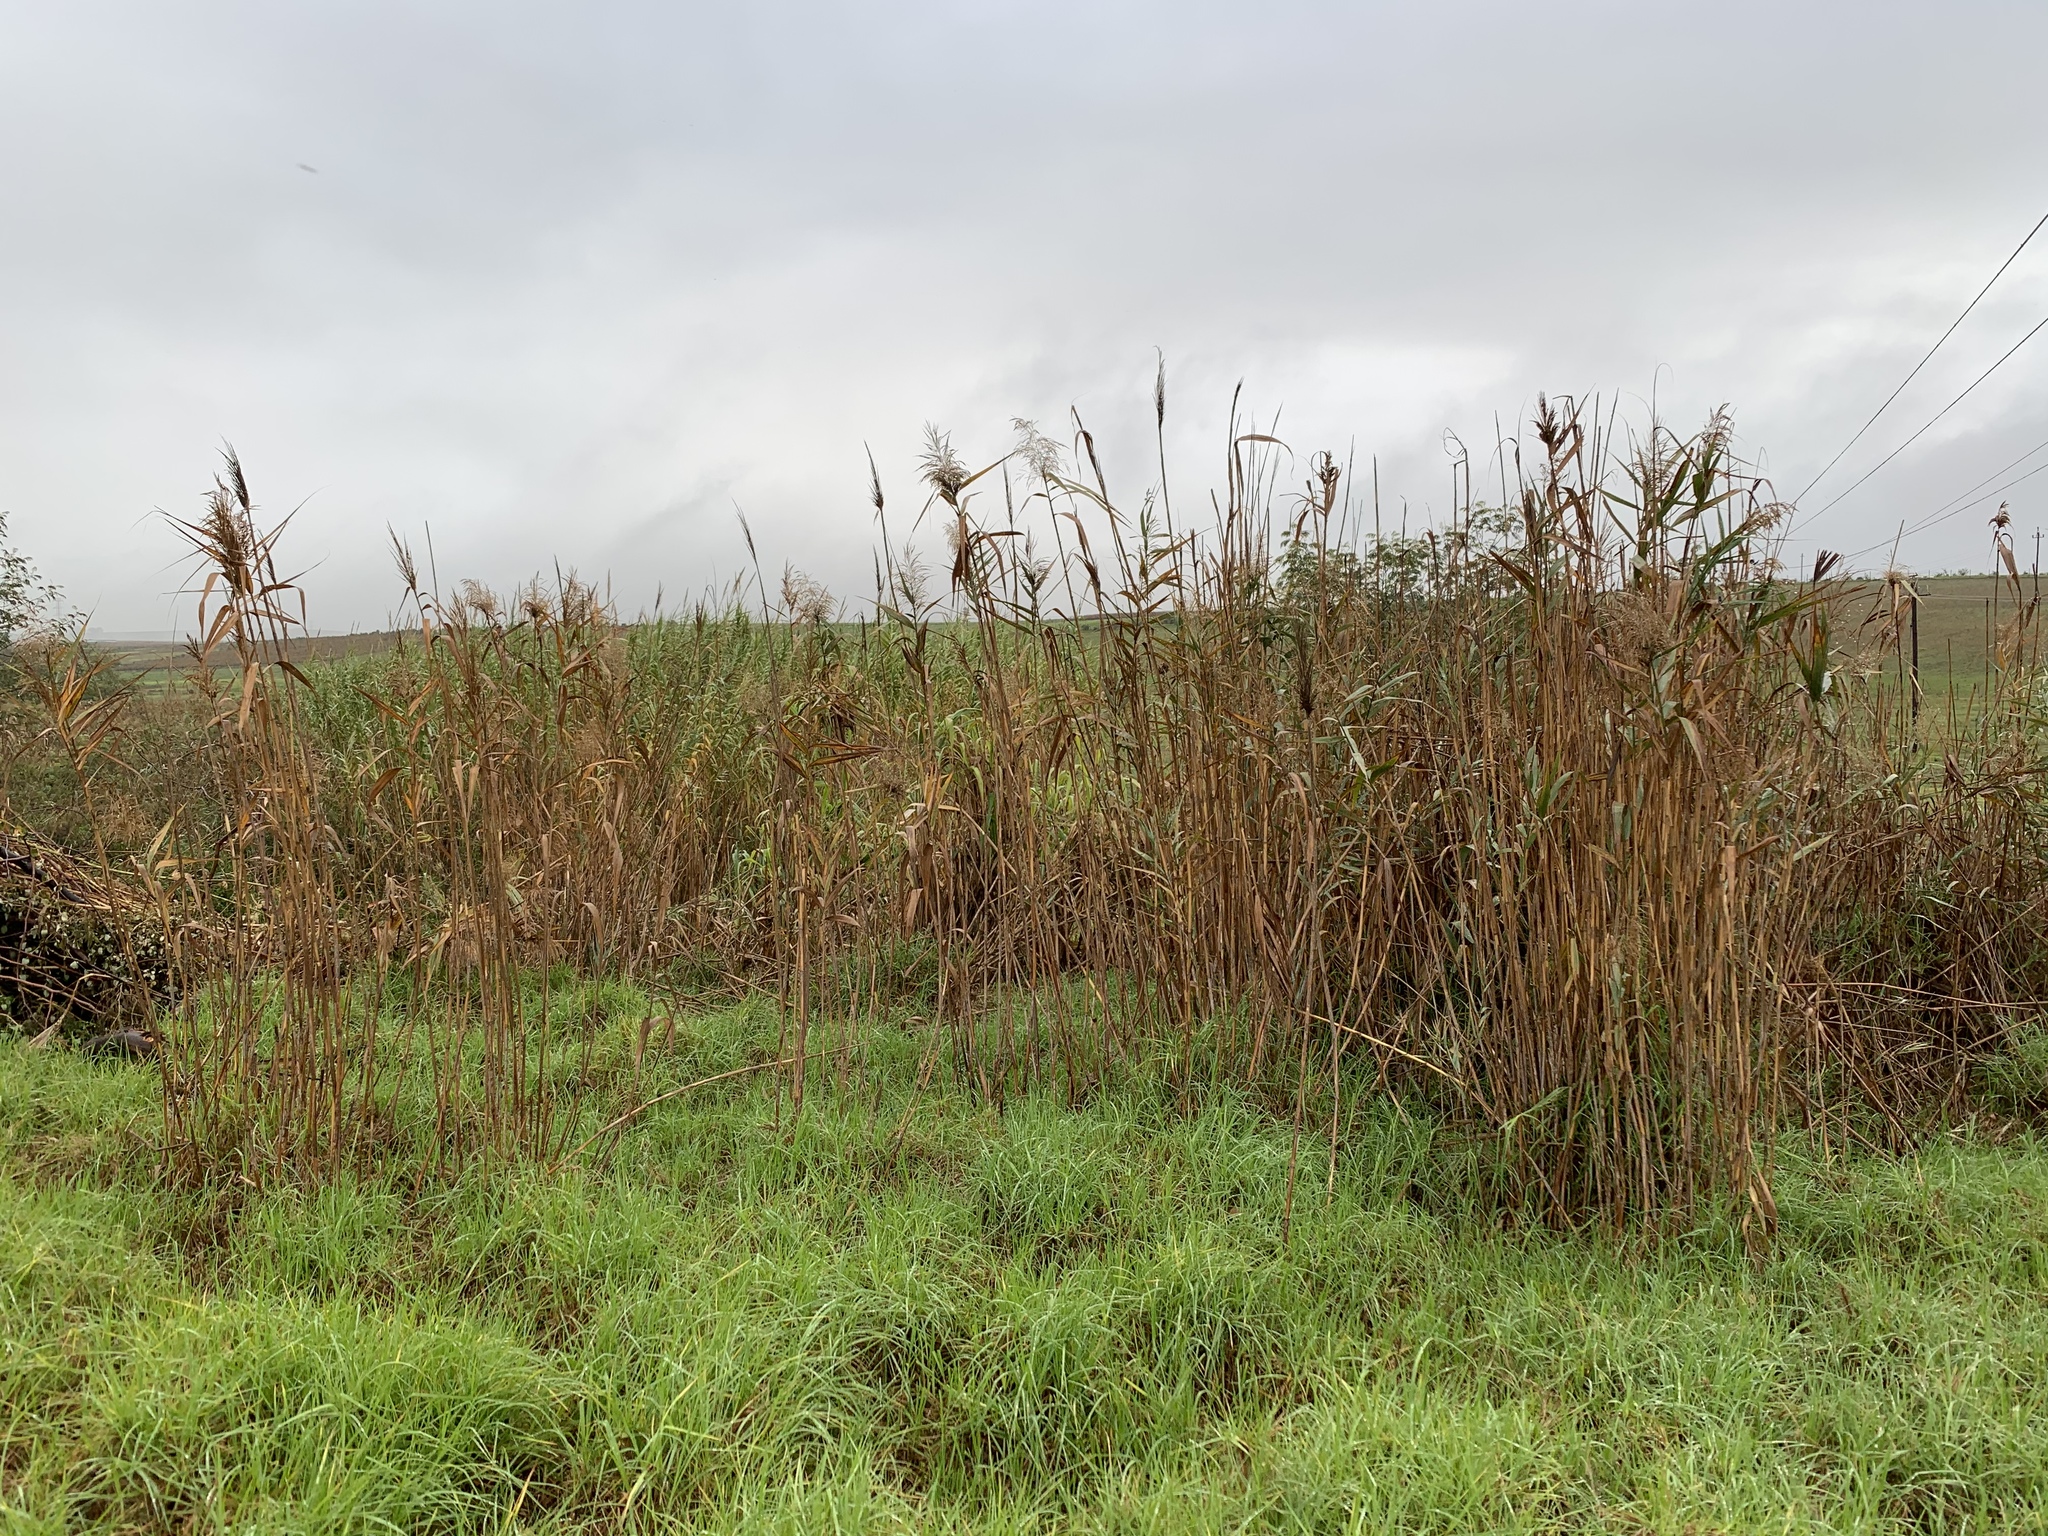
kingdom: Plantae
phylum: Tracheophyta
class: Liliopsida
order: Poales
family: Poaceae
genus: Phragmites
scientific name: Phragmites australis
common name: Common reed
